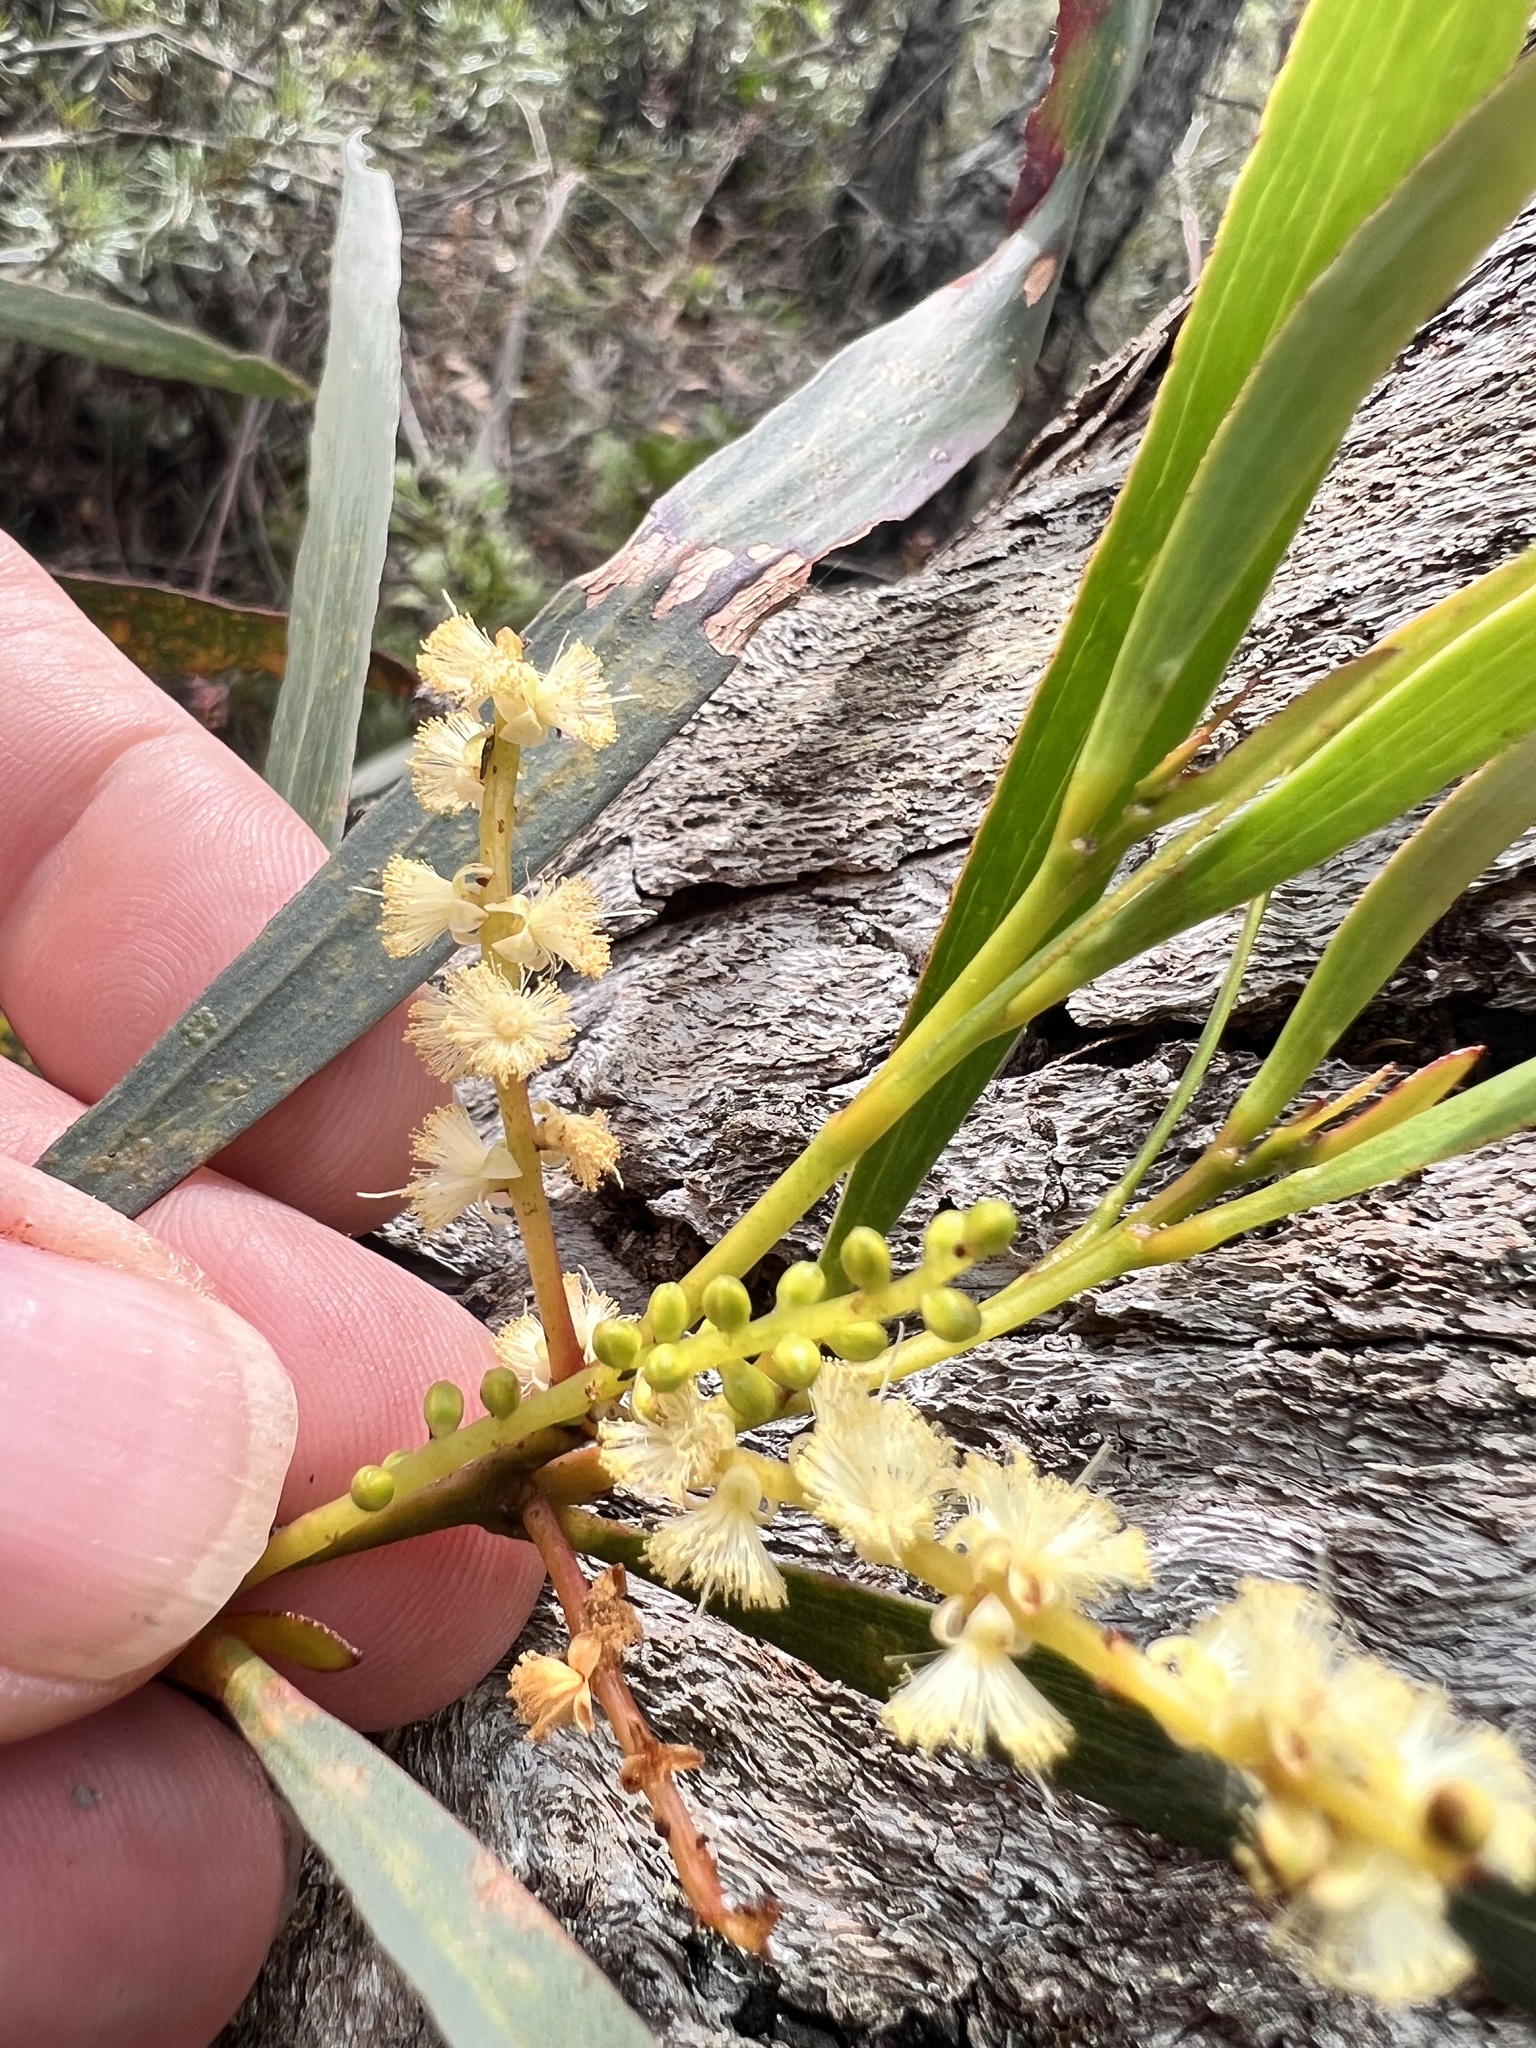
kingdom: Plantae
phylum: Tracheophyta
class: Magnoliopsida
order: Fabales
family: Fabaceae
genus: Acacia
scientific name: Acacia obtusifolia
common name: Stiff-leaf wattle
